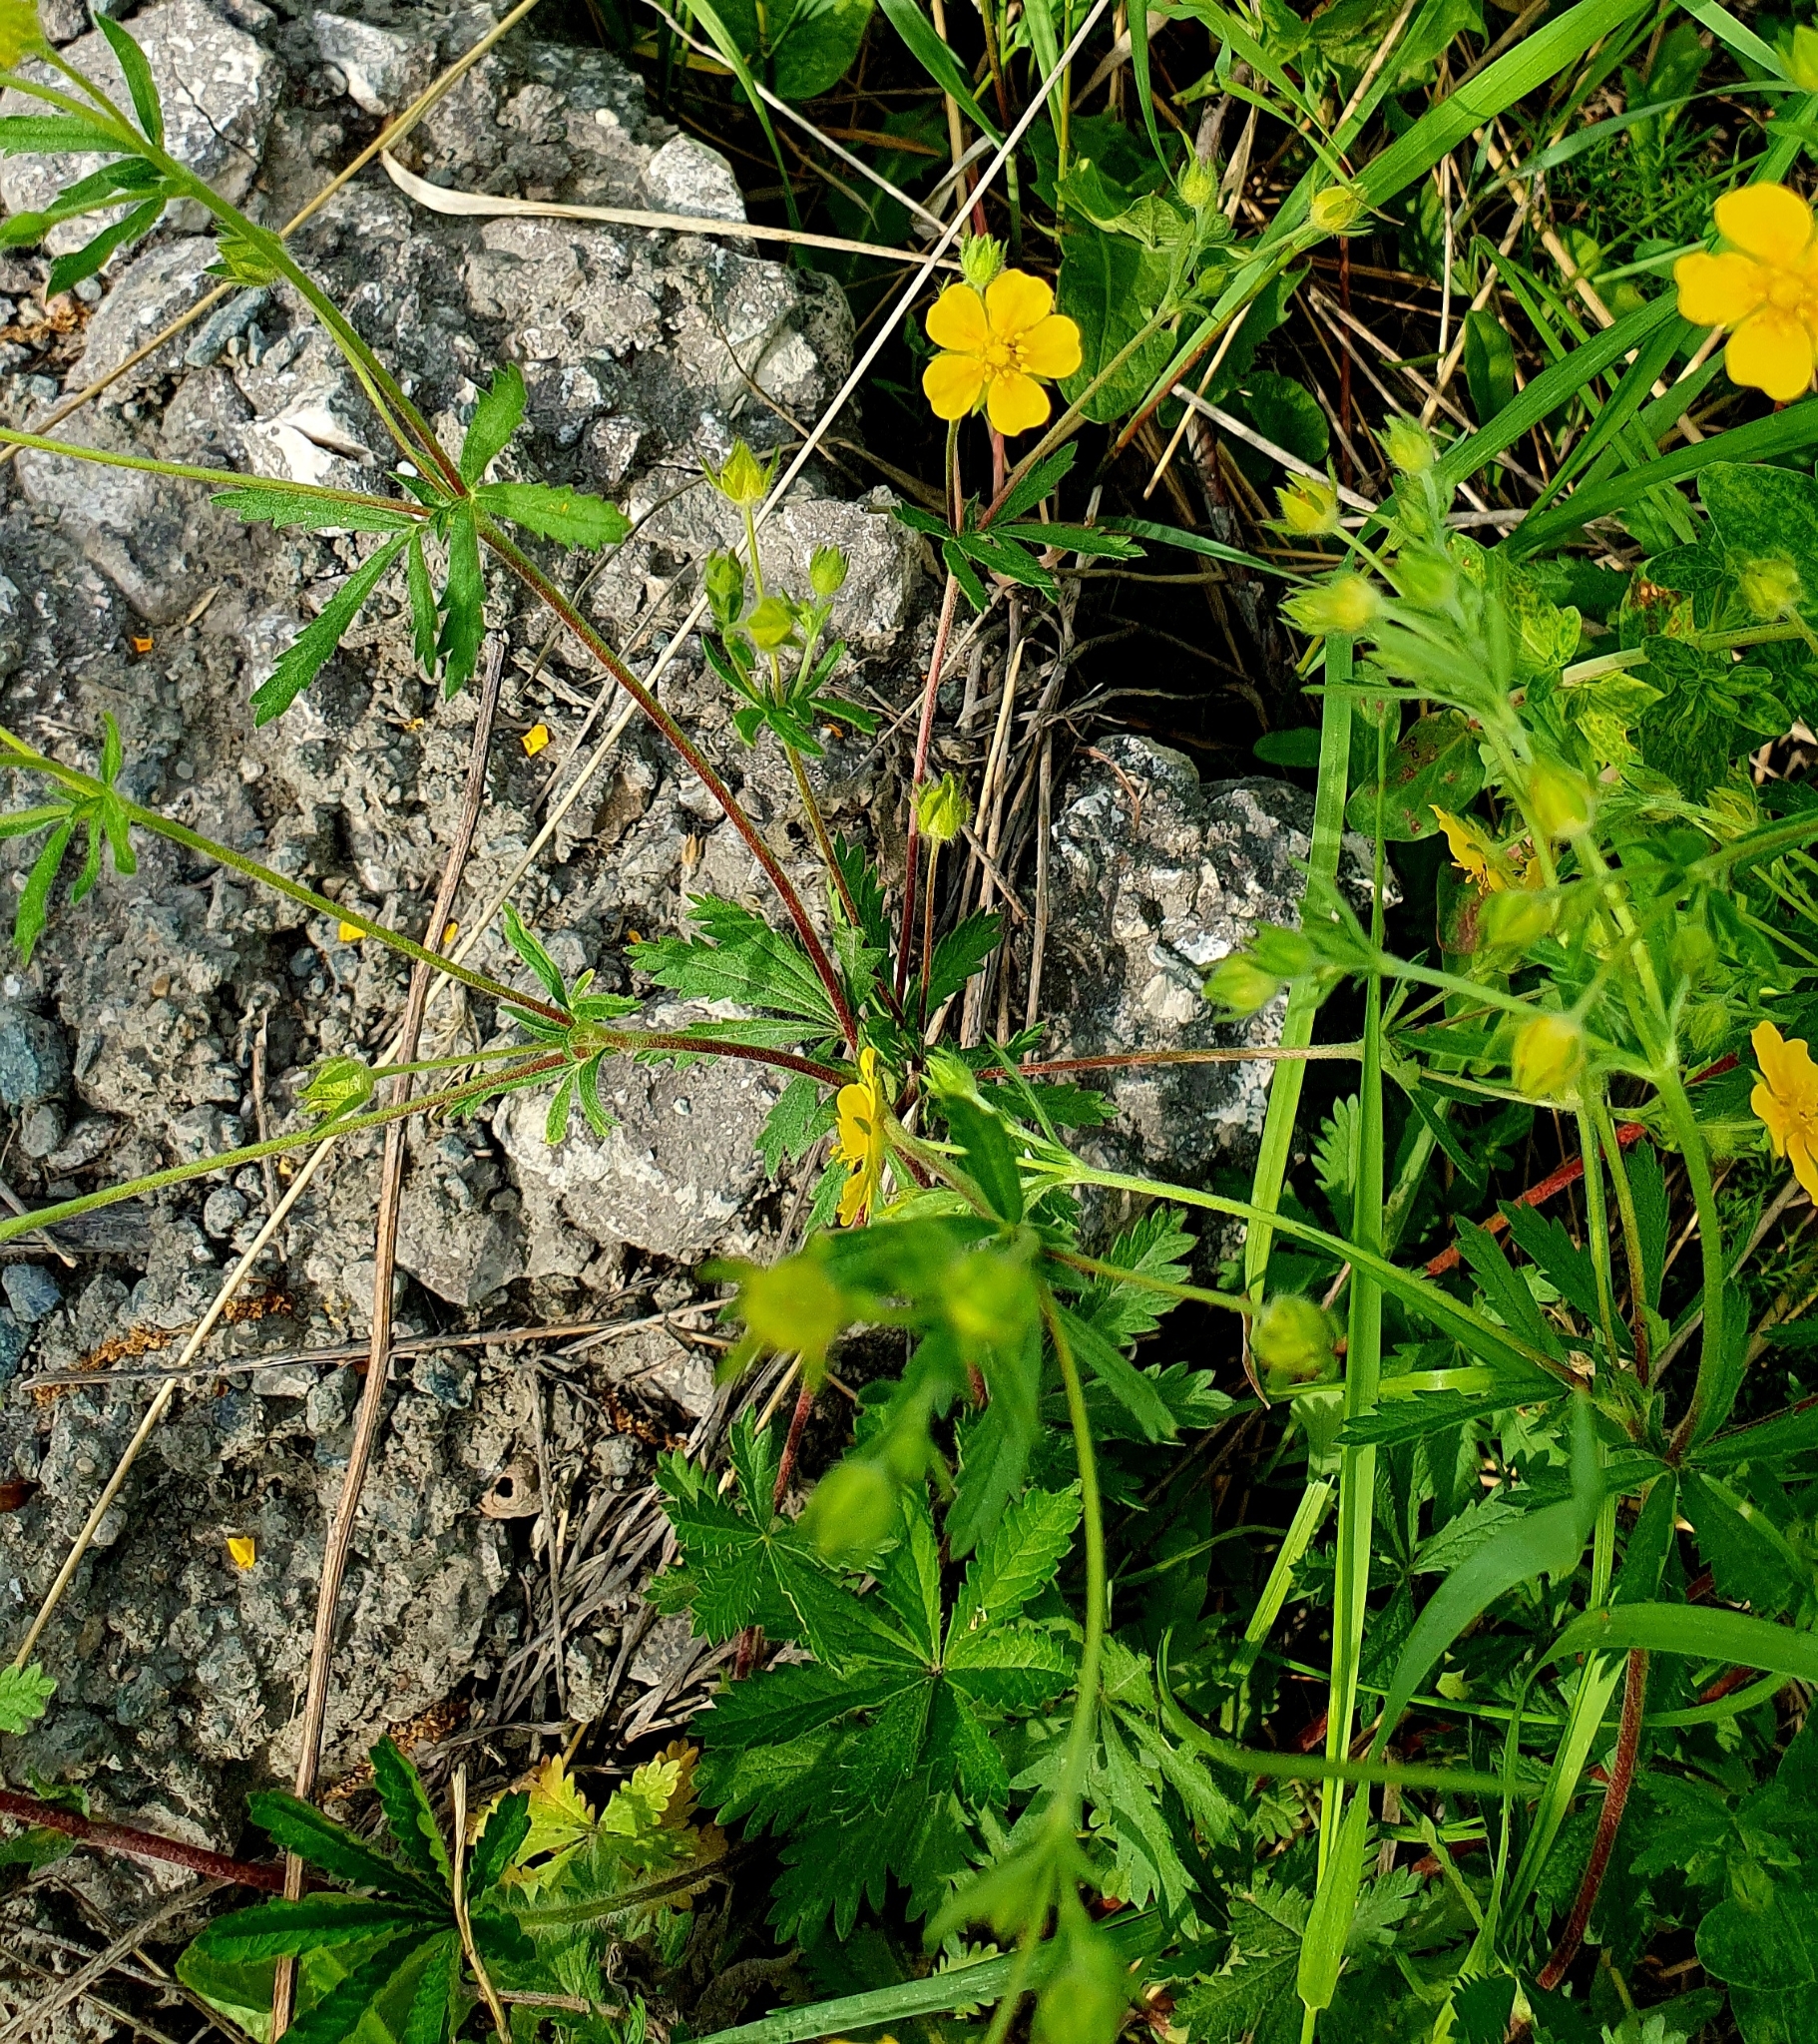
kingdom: Plantae
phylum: Tracheophyta
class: Magnoliopsida
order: Rosales
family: Rosaceae
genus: Potentilla
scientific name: Potentilla thuringiaca
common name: European cinquefoil
